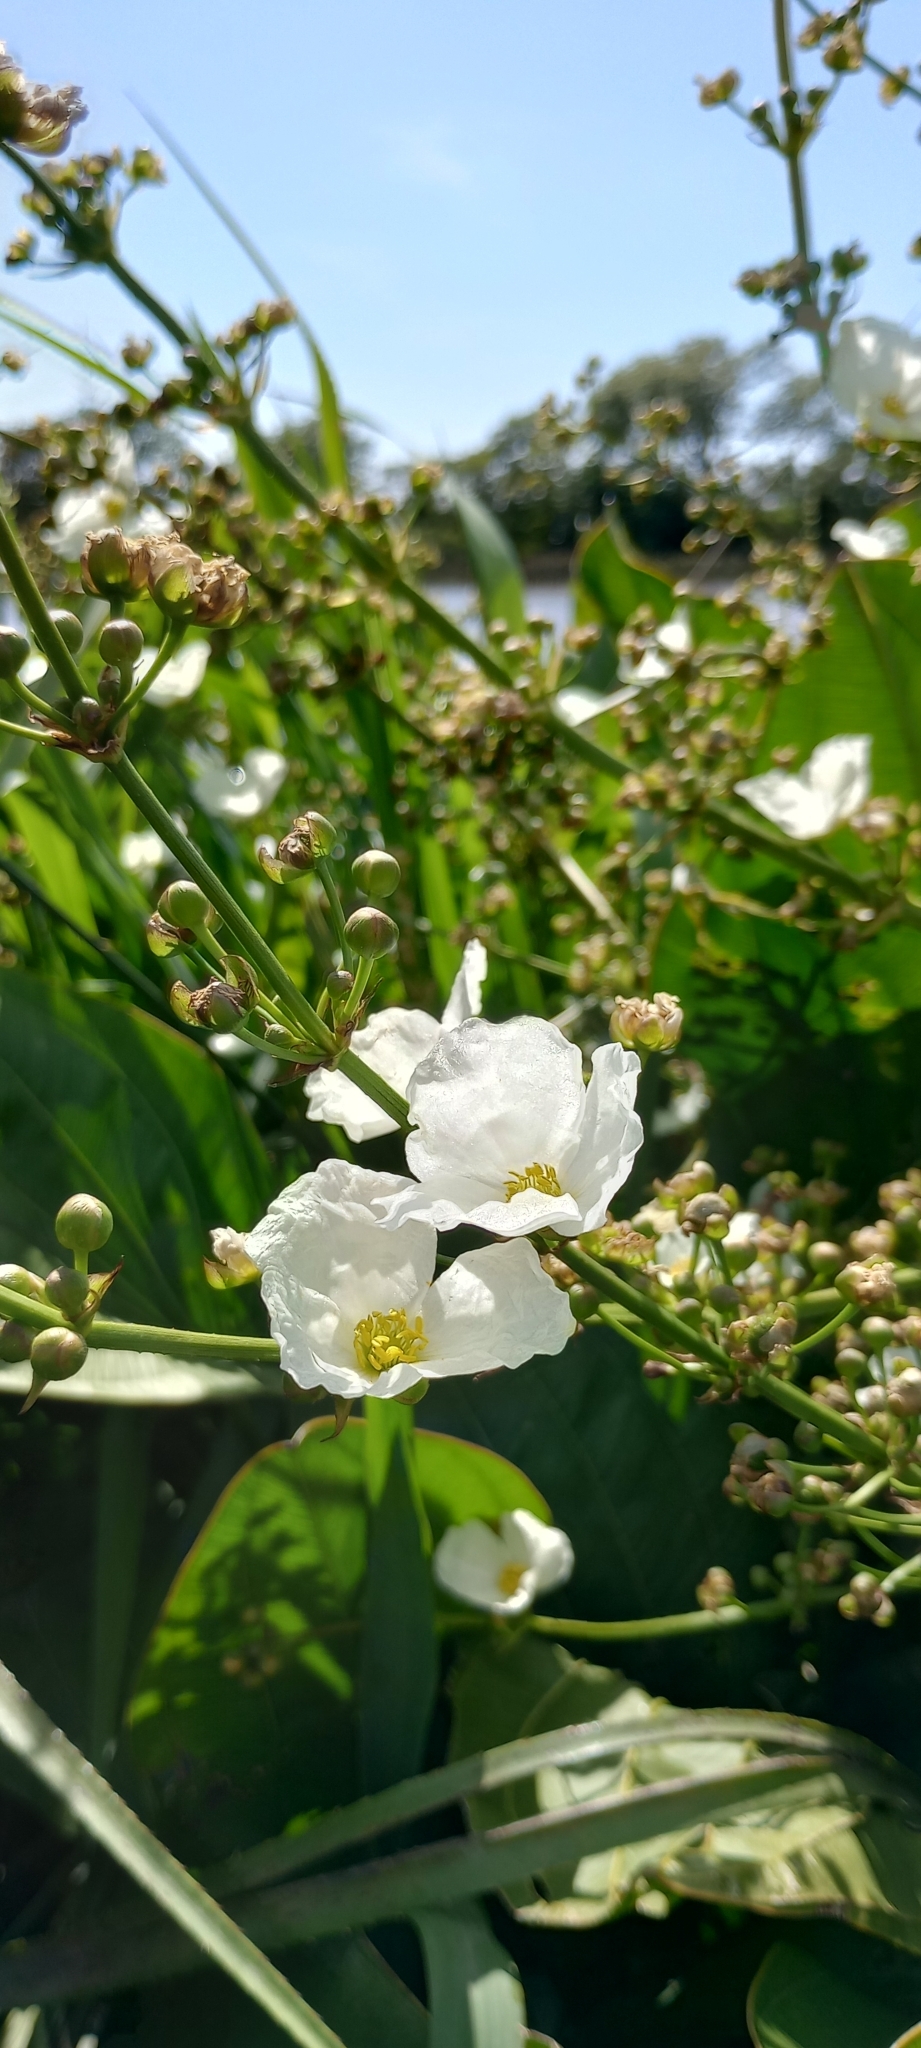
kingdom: Plantae
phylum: Tracheophyta
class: Liliopsida
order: Alismatales
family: Alismataceae
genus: Aquarius
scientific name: Aquarius grandiflorus
